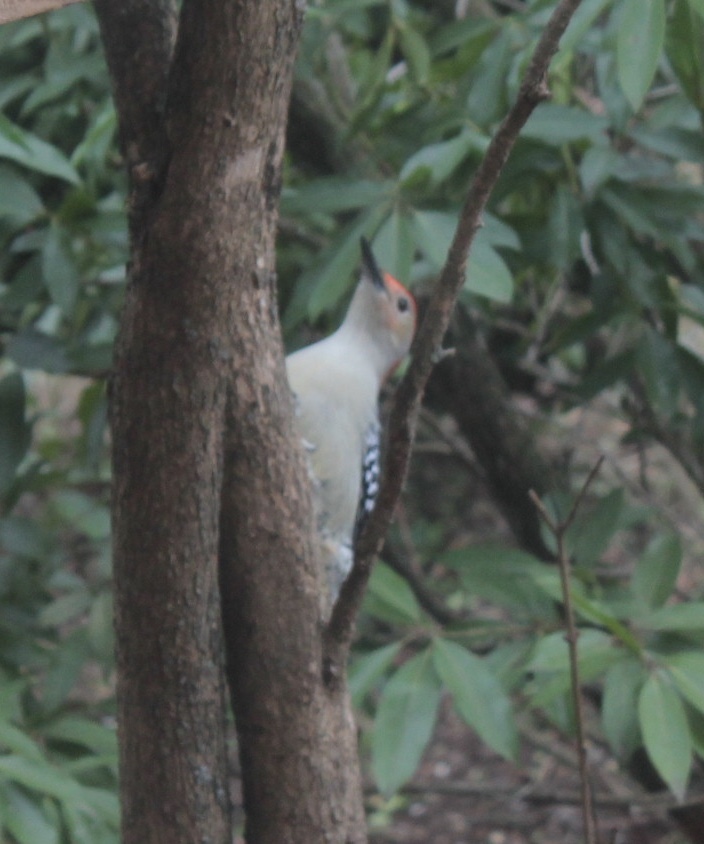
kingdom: Animalia
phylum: Chordata
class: Aves
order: Piciformes
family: Picidae
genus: Melanerpes
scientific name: Melanerpes carolinus
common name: Red-bellied woodpecker
